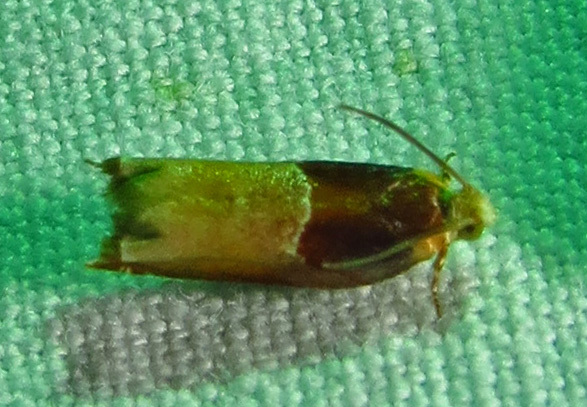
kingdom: Animalia
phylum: Arthropoda
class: Insecta
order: Lepidoptera
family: Tortricidae
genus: Ancylis
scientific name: Ancylis divisana
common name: Two-toned ancylis moth
